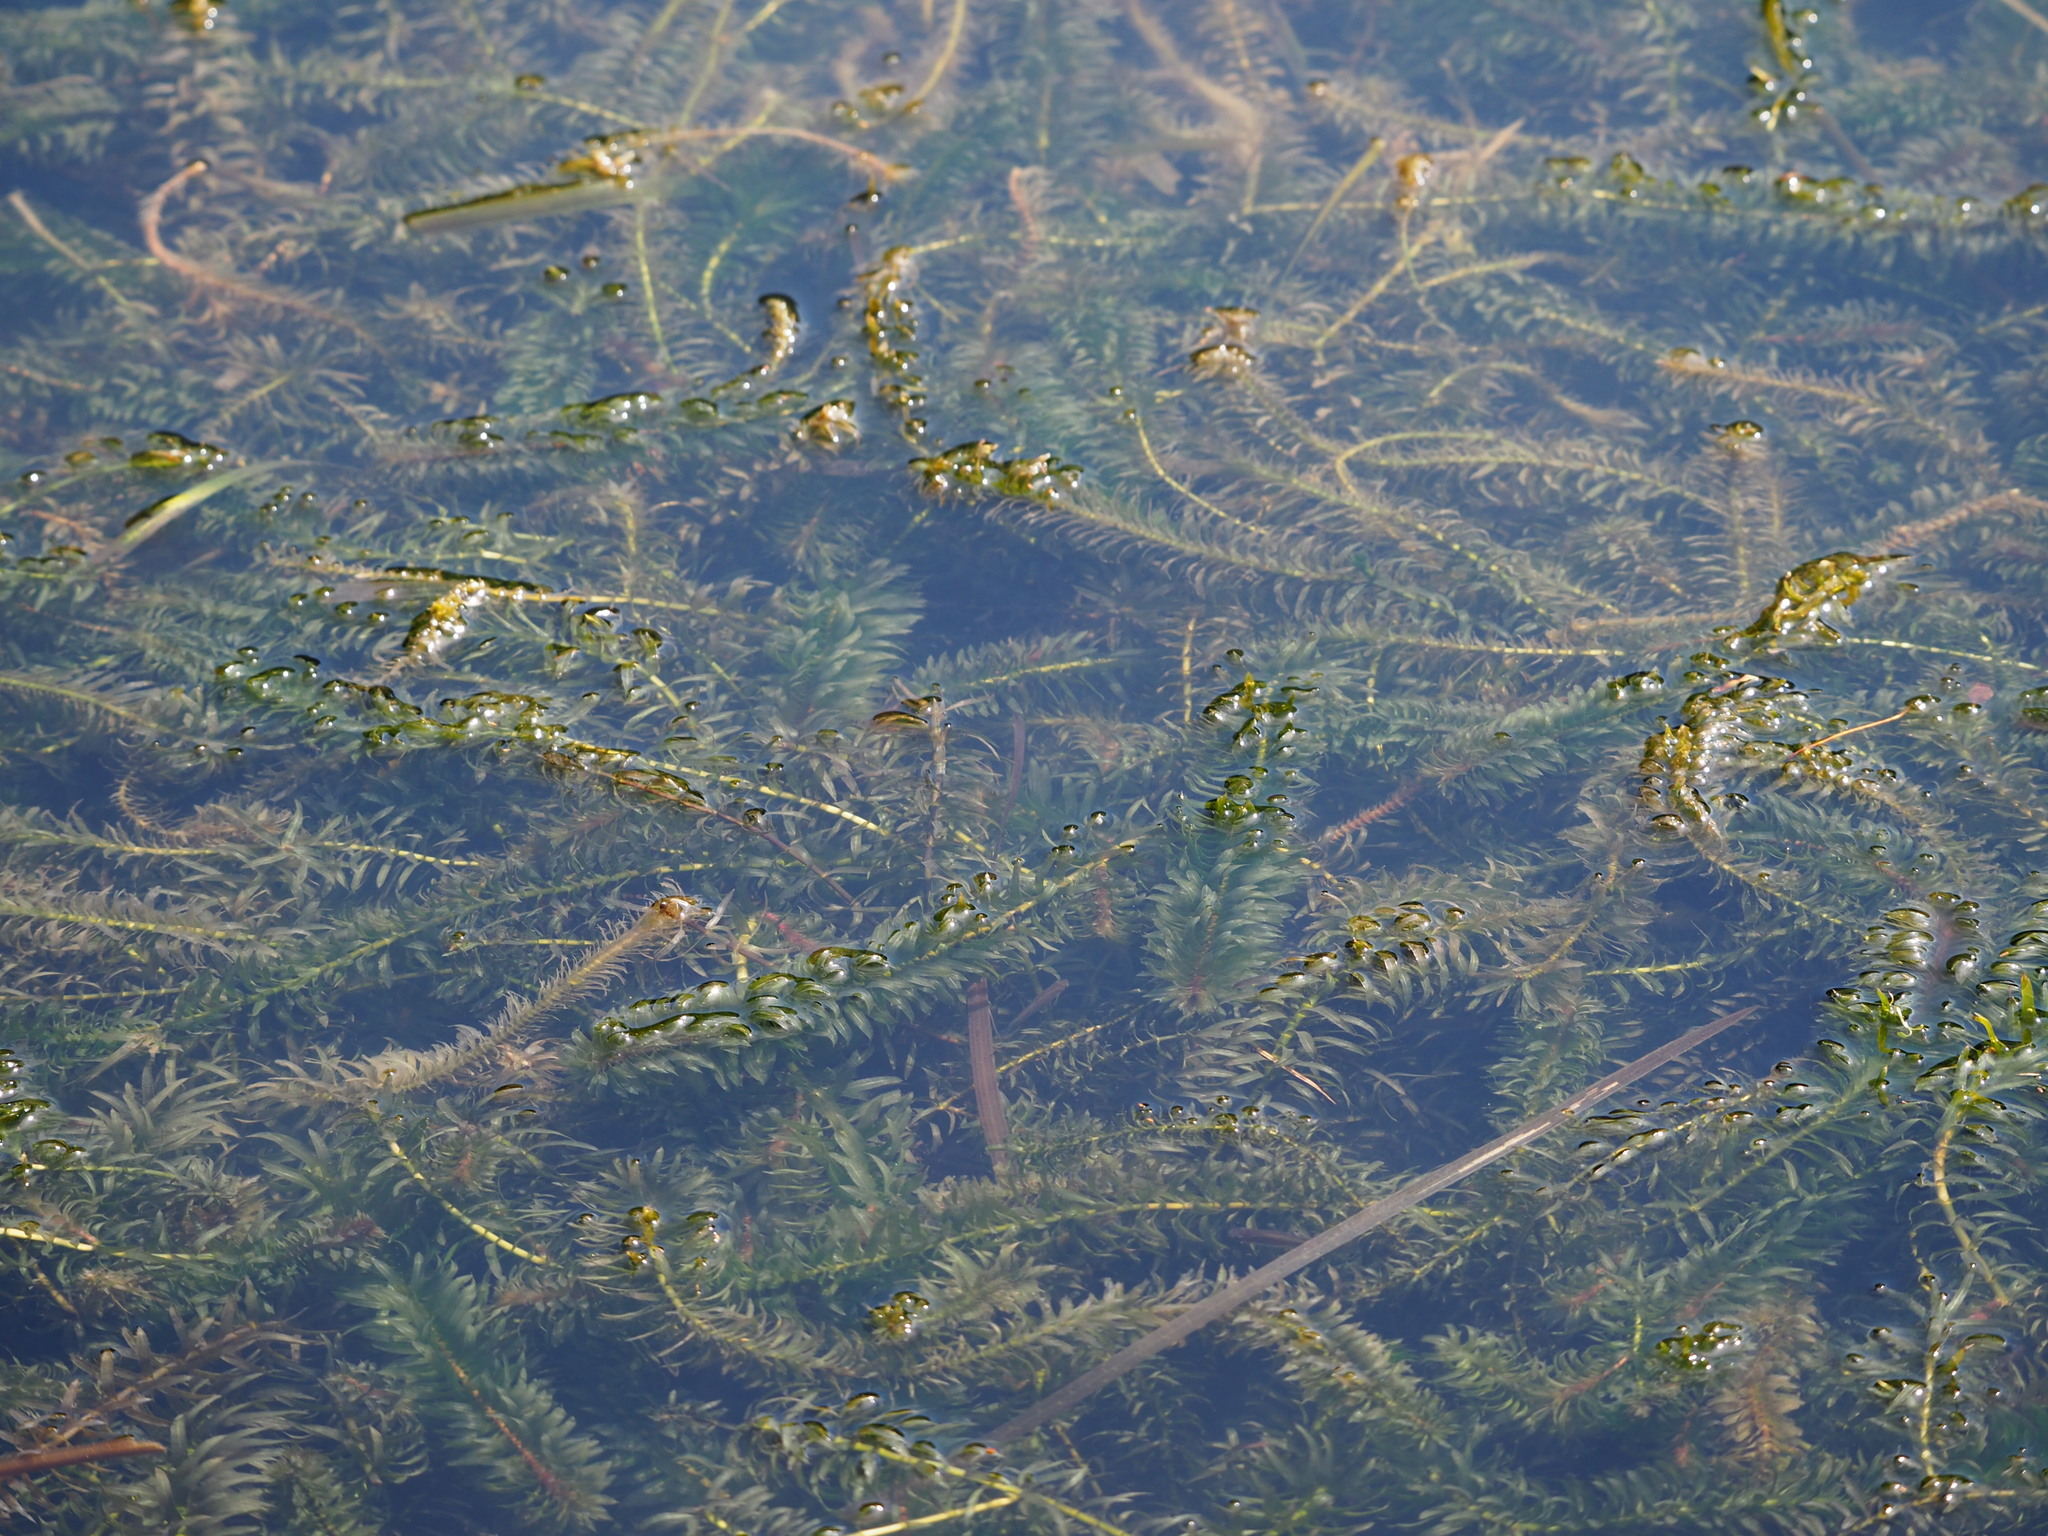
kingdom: Plantae
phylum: Tracheophyta
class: Liliopsida
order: Alismatales
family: Hydrocharitaceae
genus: Elodea
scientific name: Elodea densa
